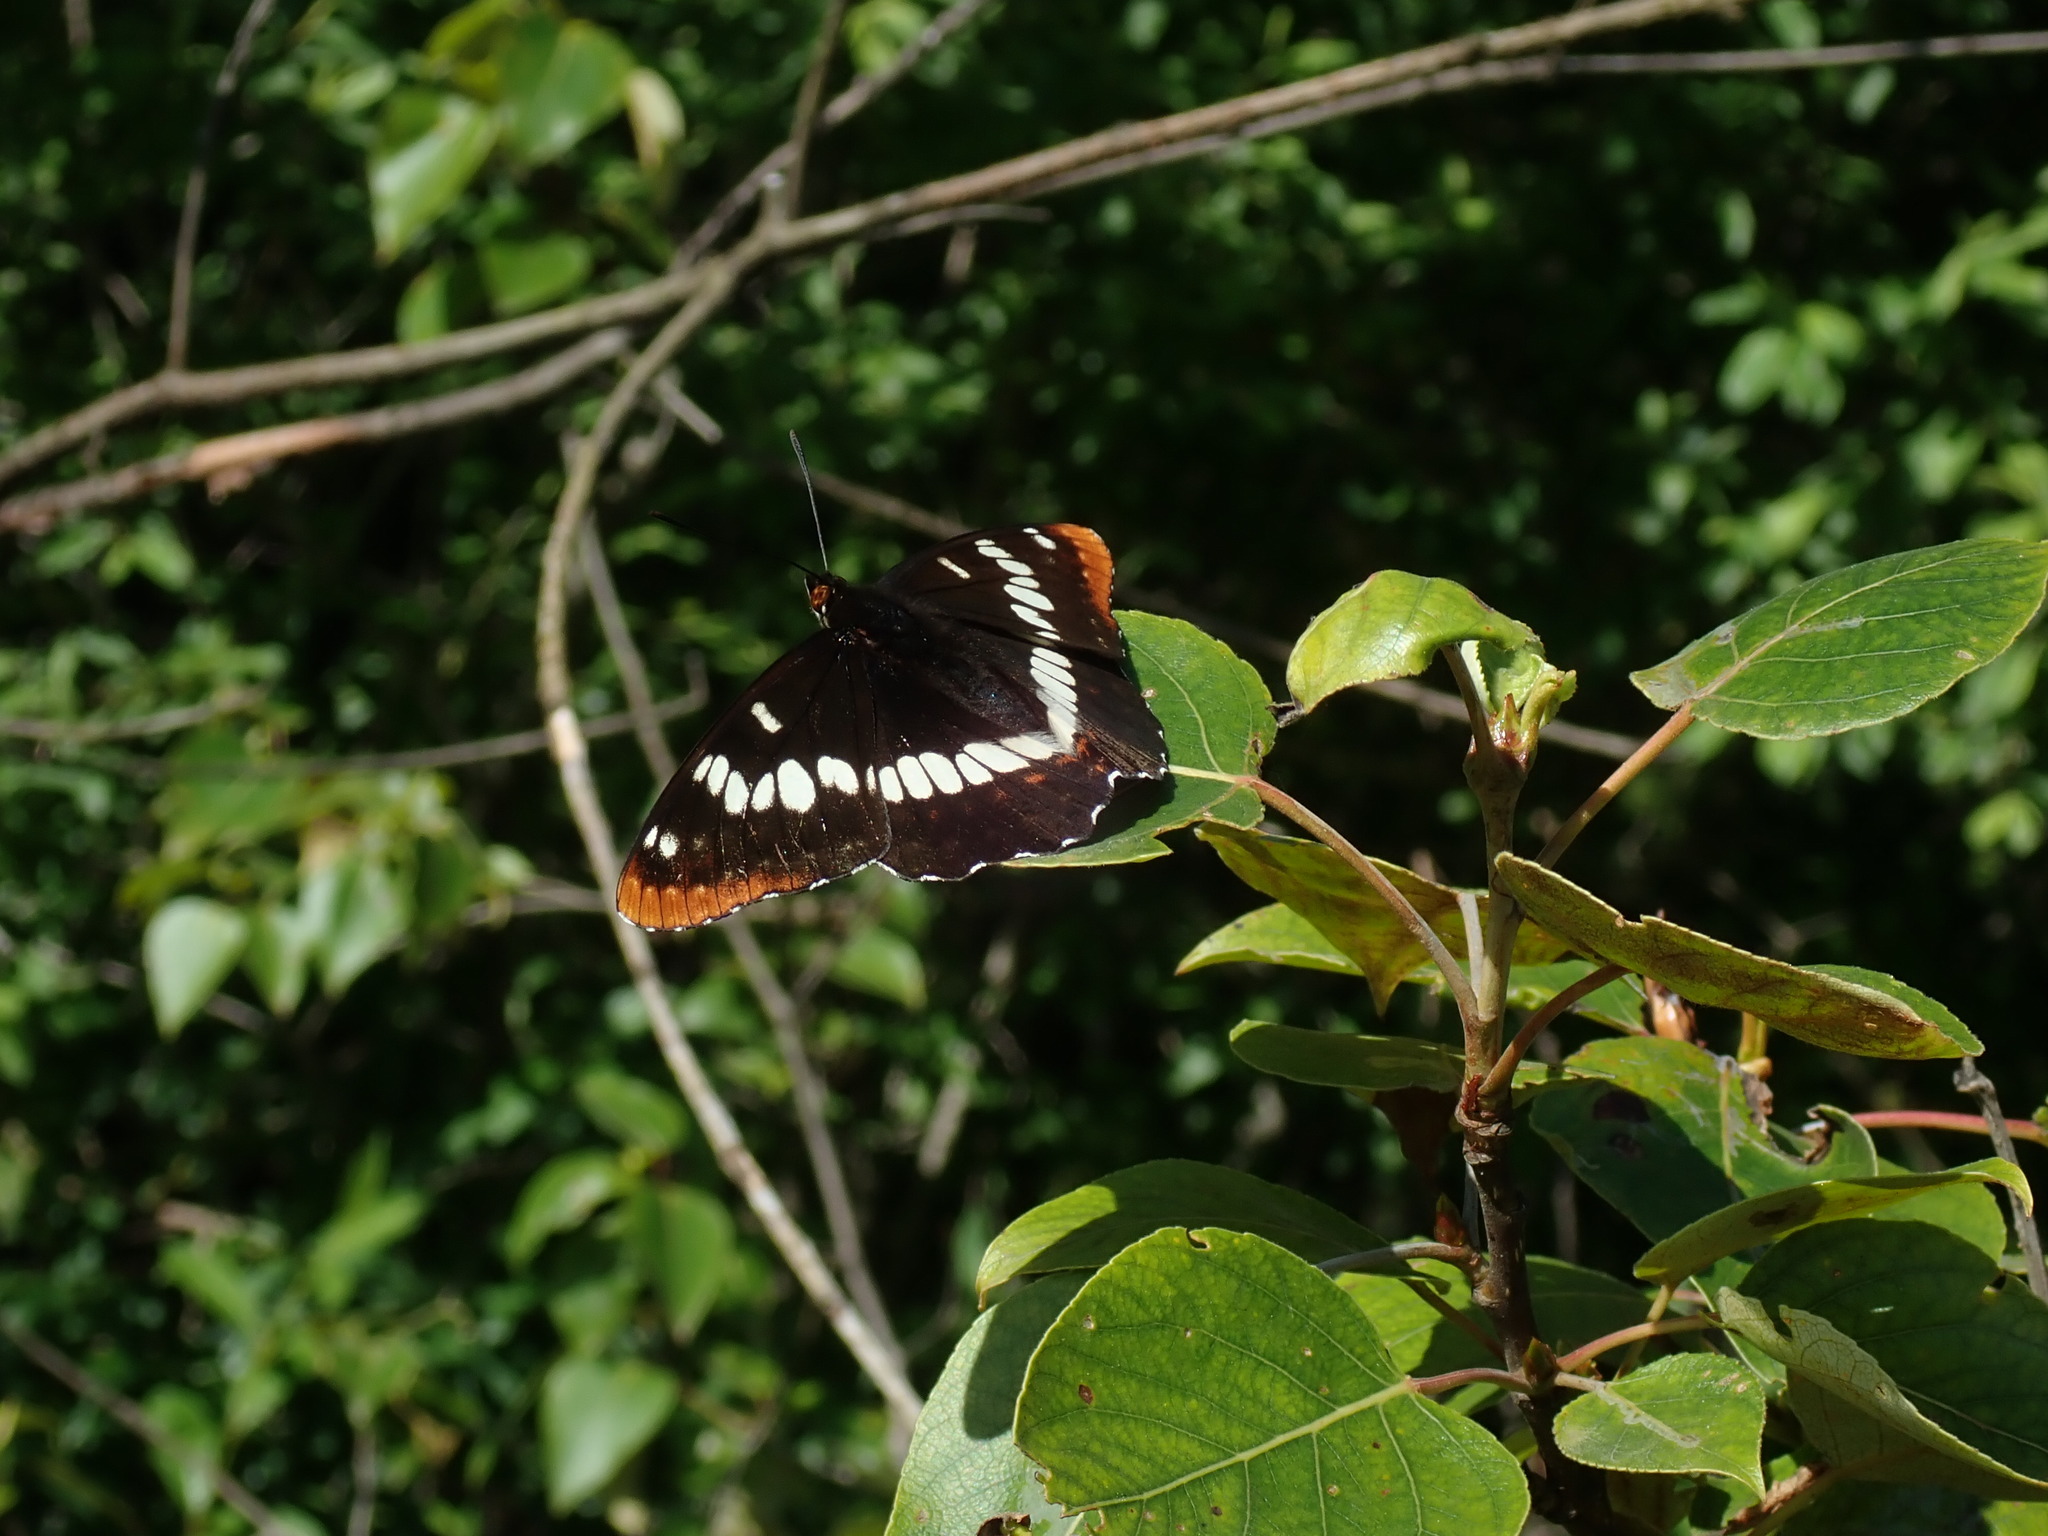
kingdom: Animalia
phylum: Arthropoda
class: Insecta
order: Lepidoptera
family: Nymphalidae
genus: Limenitis
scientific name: Limenitis lorquini
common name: Lorquin's admiral
